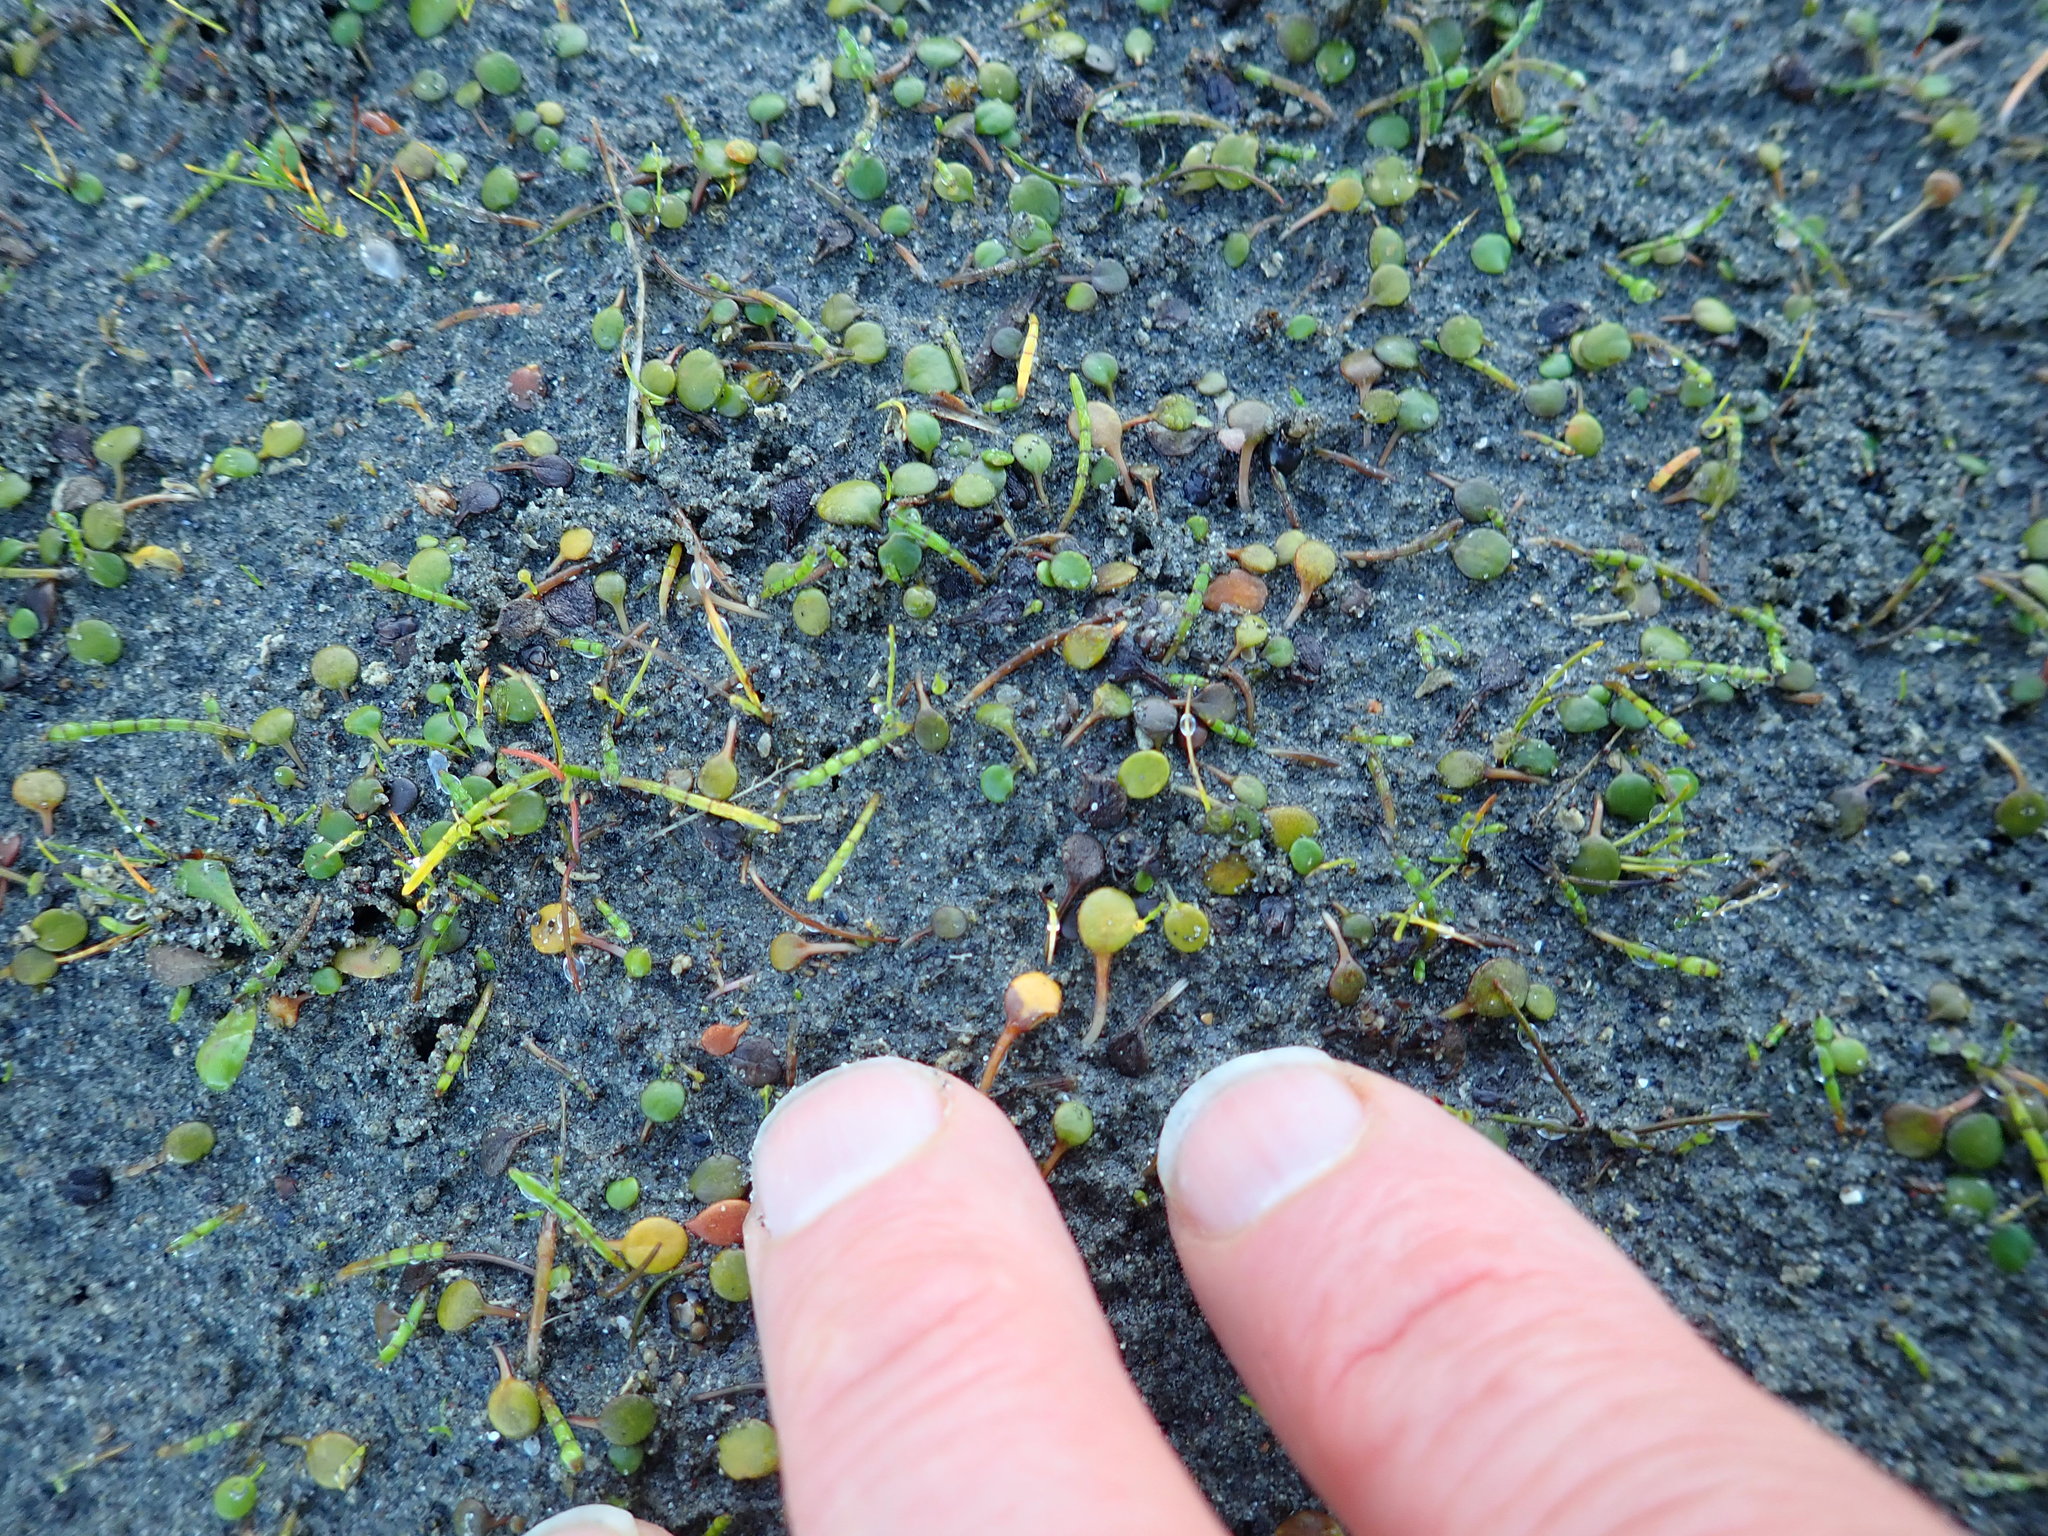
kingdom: Plantae
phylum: Tracheophyta
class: Magnoliopsida
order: Apiales
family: Apiaceae
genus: Lilaeopsis
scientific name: Lilaeopsis novae-zelandiae
